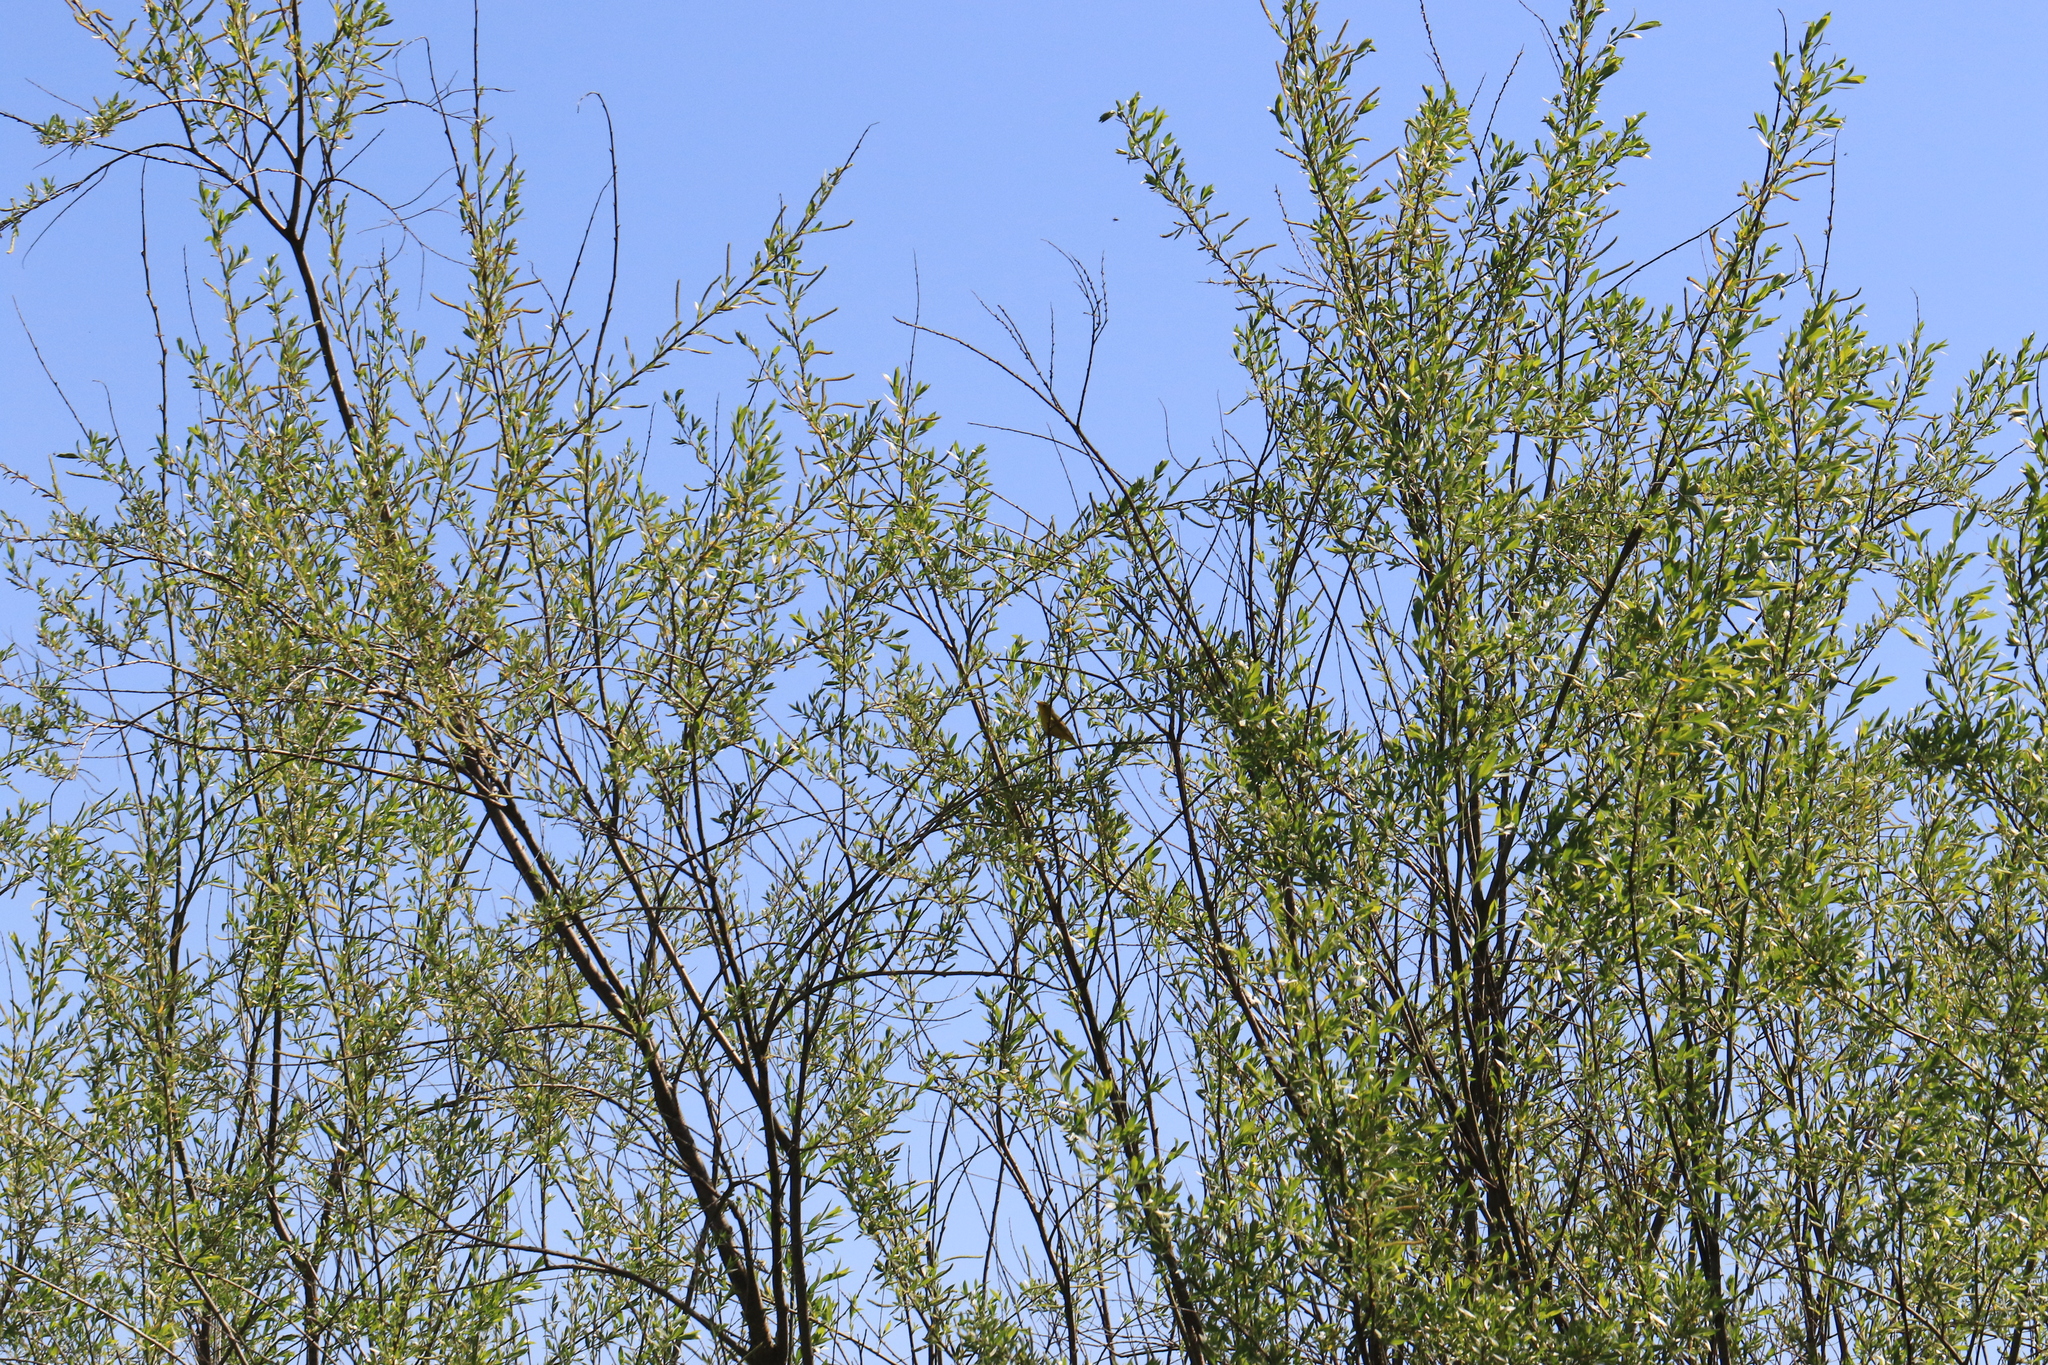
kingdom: Animalia
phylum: Chordata
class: Aves
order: Passeriformes
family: Parulidae
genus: Setophaga
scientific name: Setophaga petechia
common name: Yellow warbler
